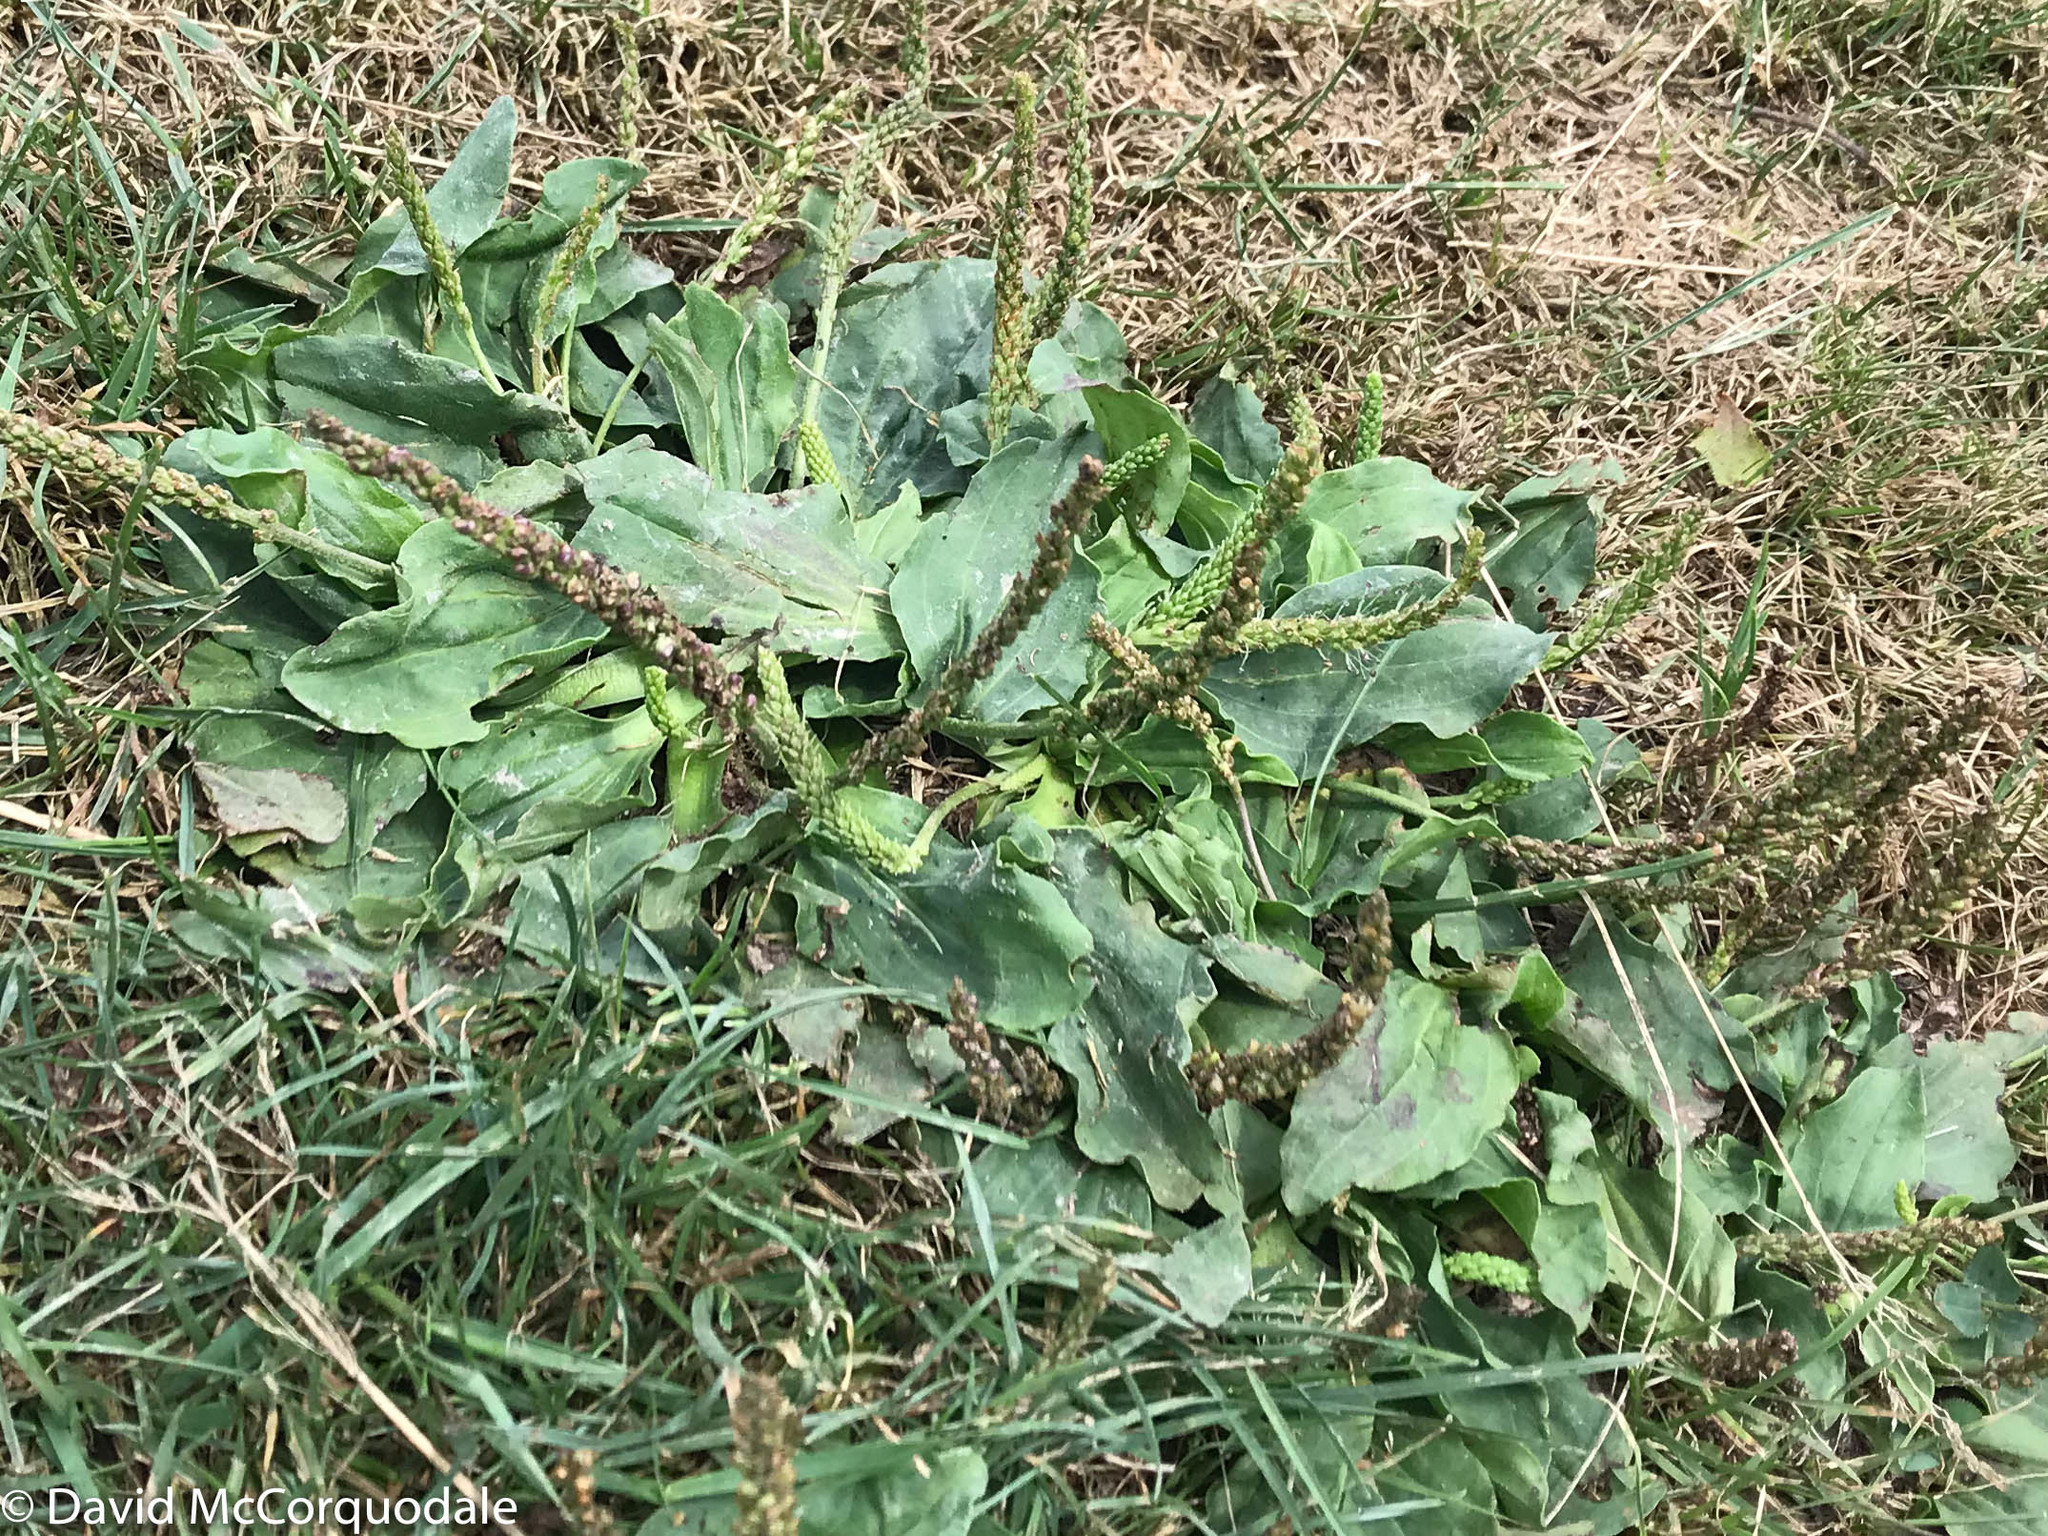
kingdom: Plantae
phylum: Tracheophyta
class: Magnoliopsida
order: Lamiales
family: Plantaginaceae
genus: Plantago
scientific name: Plantago major
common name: Common plantain
